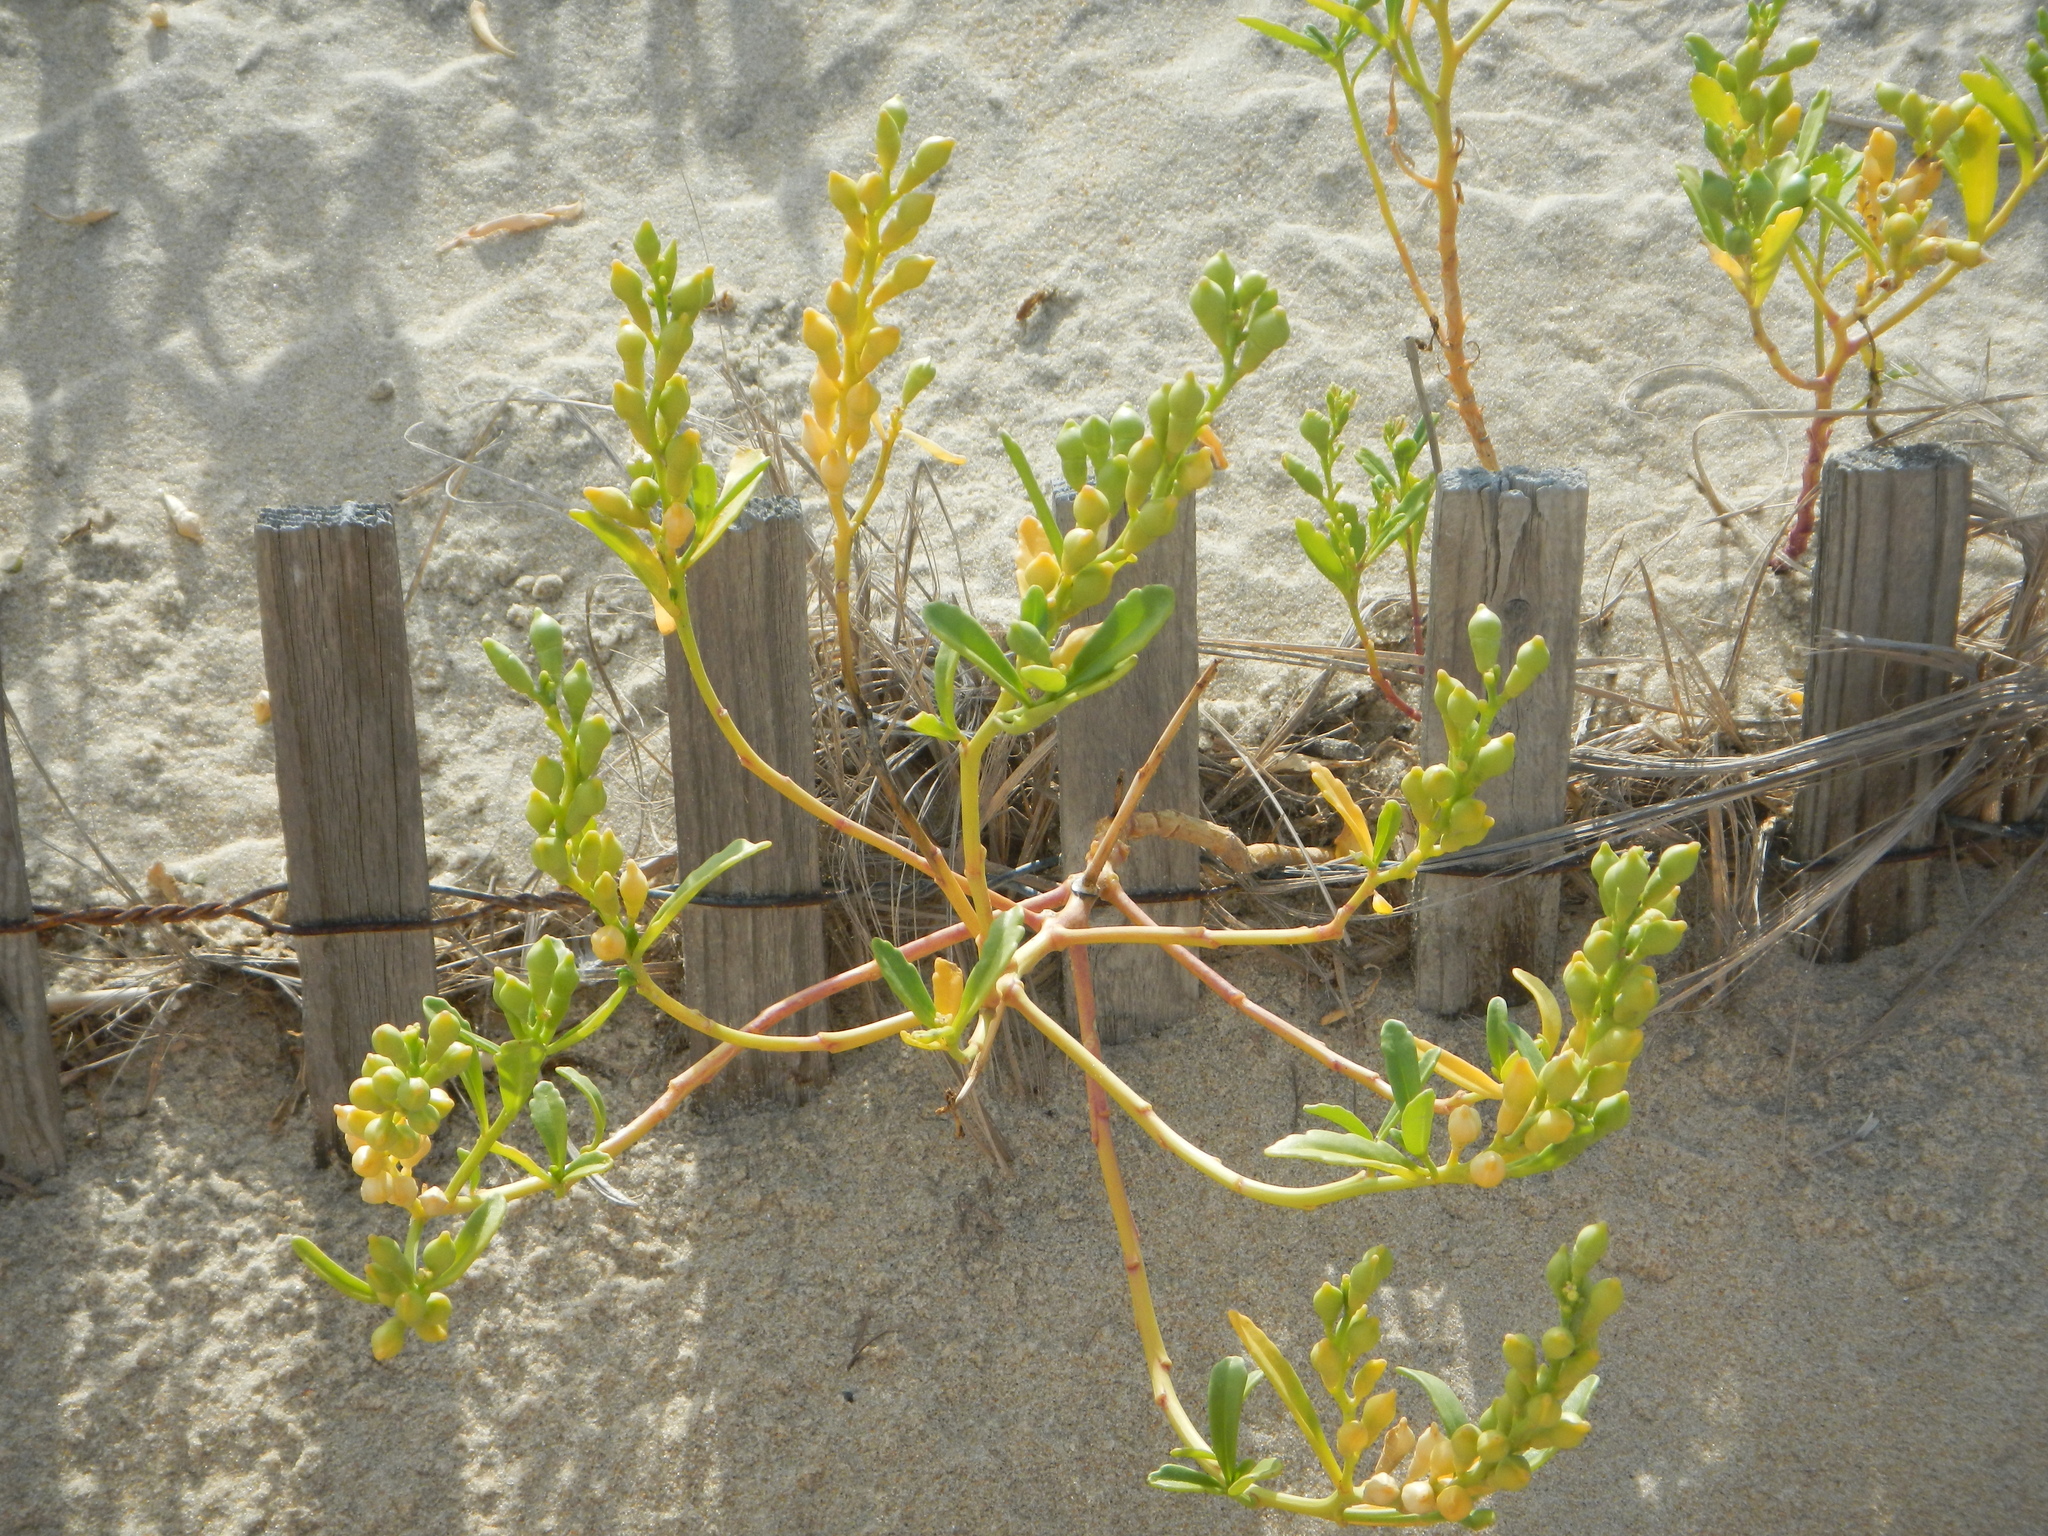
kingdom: Plantae
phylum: Tracheophyta
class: Magnoliopsida
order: Brassicales
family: Brassicaceae
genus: Cakile
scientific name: Cakile edentula
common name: American sea rocket
